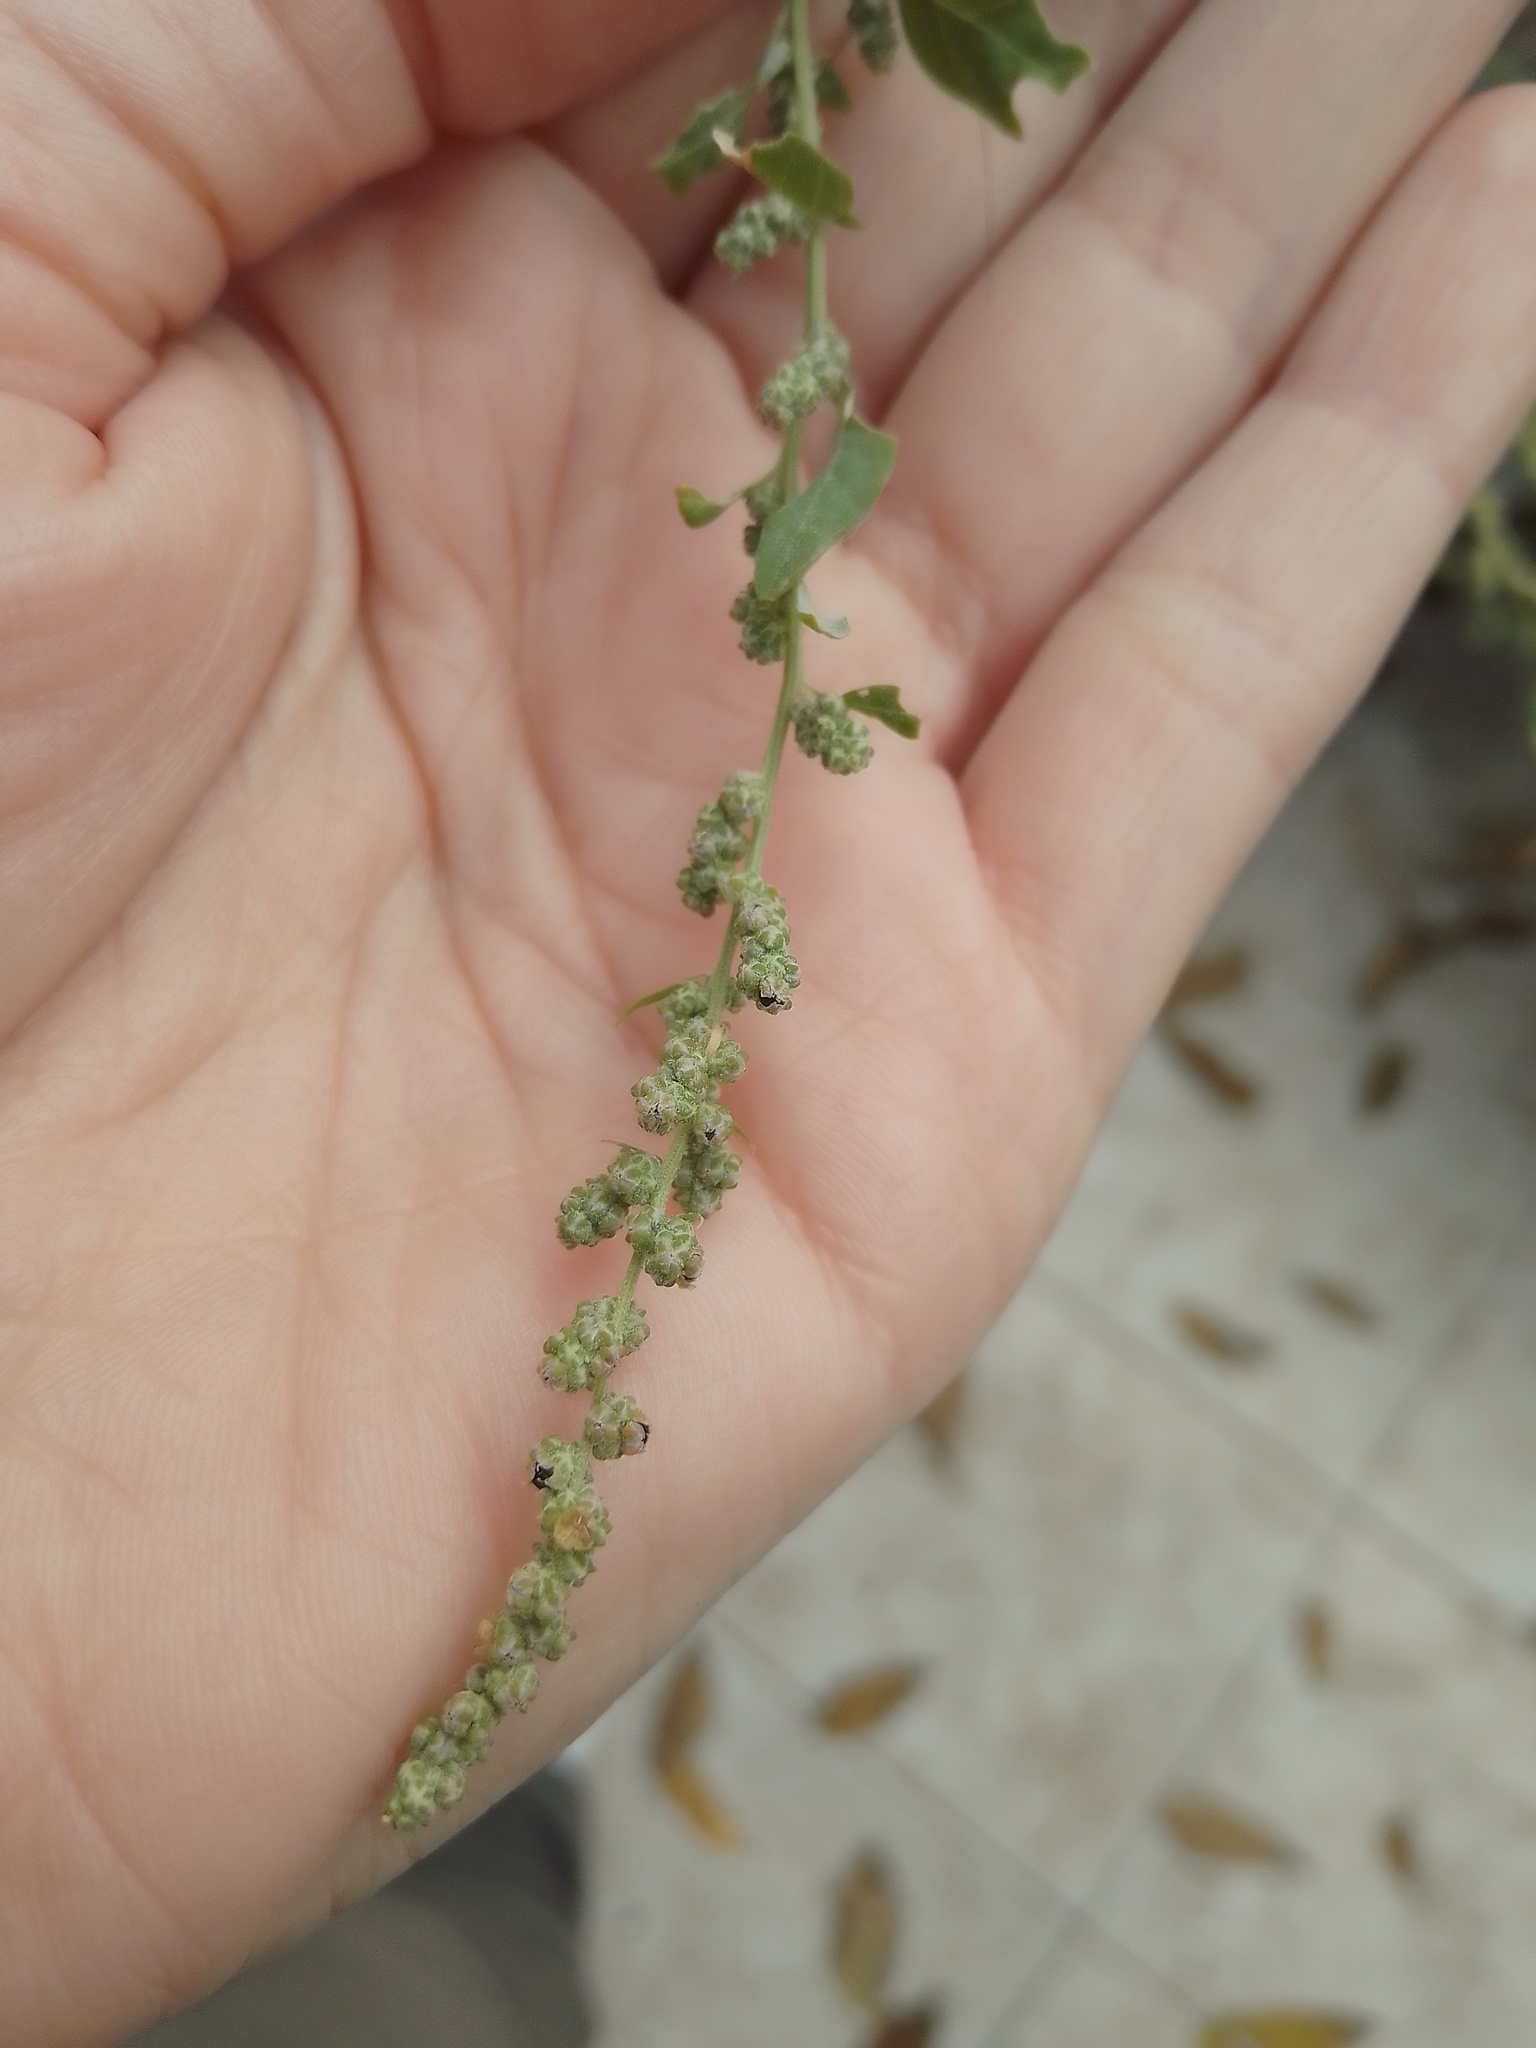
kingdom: Plantae
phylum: Tracheophyta
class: Magnoliopsida
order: Caryophyllales
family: Amaranthaceae
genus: Chenopodium
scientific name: Chenopodium album
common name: Fat-hen
